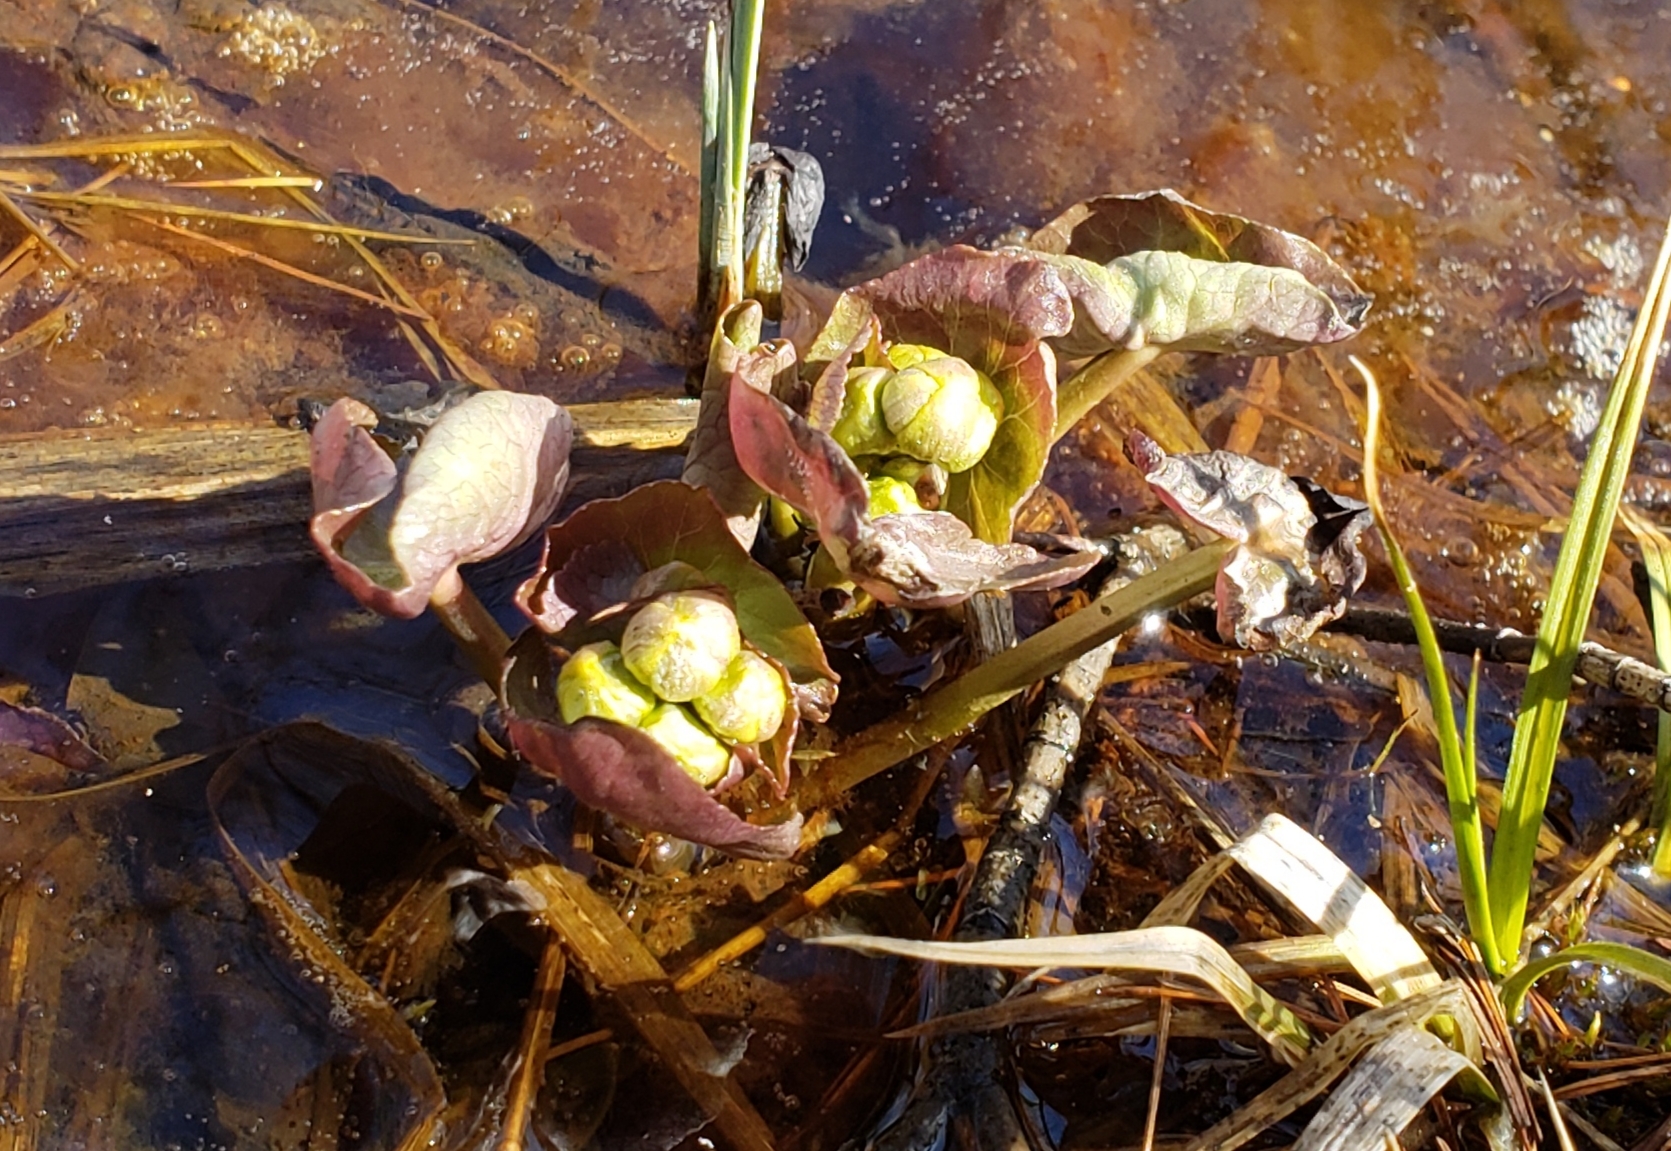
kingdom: Plantae
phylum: Tracheophyta
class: Magnoliopsida
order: Ranunculales
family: Ranunculaceae
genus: Caltha
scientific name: Caltha palustris
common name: Marsh marigold
